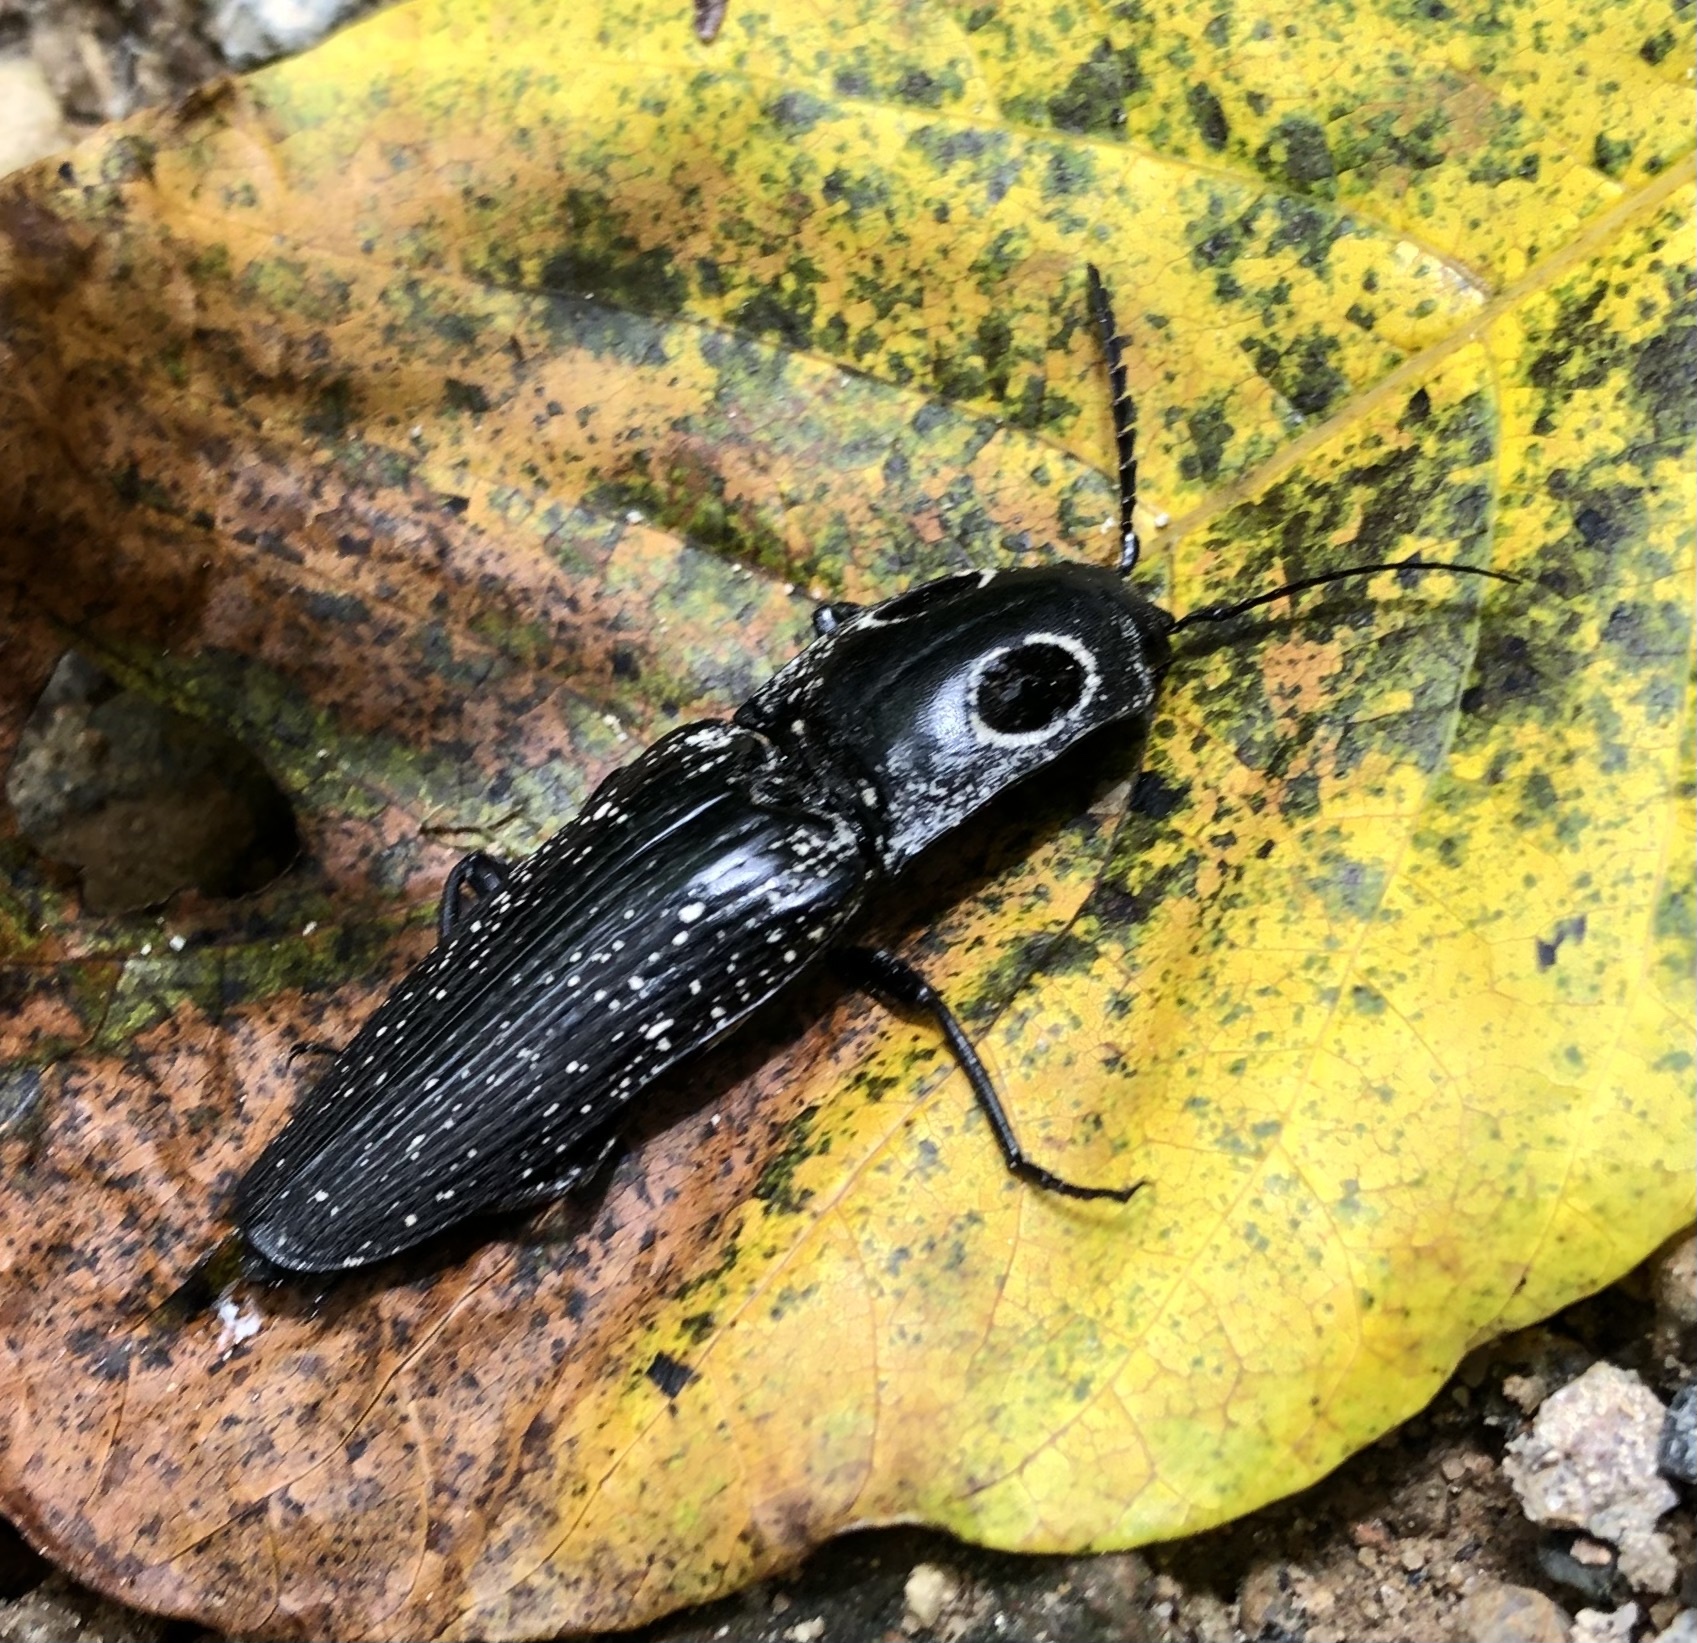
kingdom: Animalia
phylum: Arthropoda
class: Insecta
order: Coleoptera
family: Elateridae
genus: Alaus
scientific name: Alaus oculatus
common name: Eastern eyed click beetle
